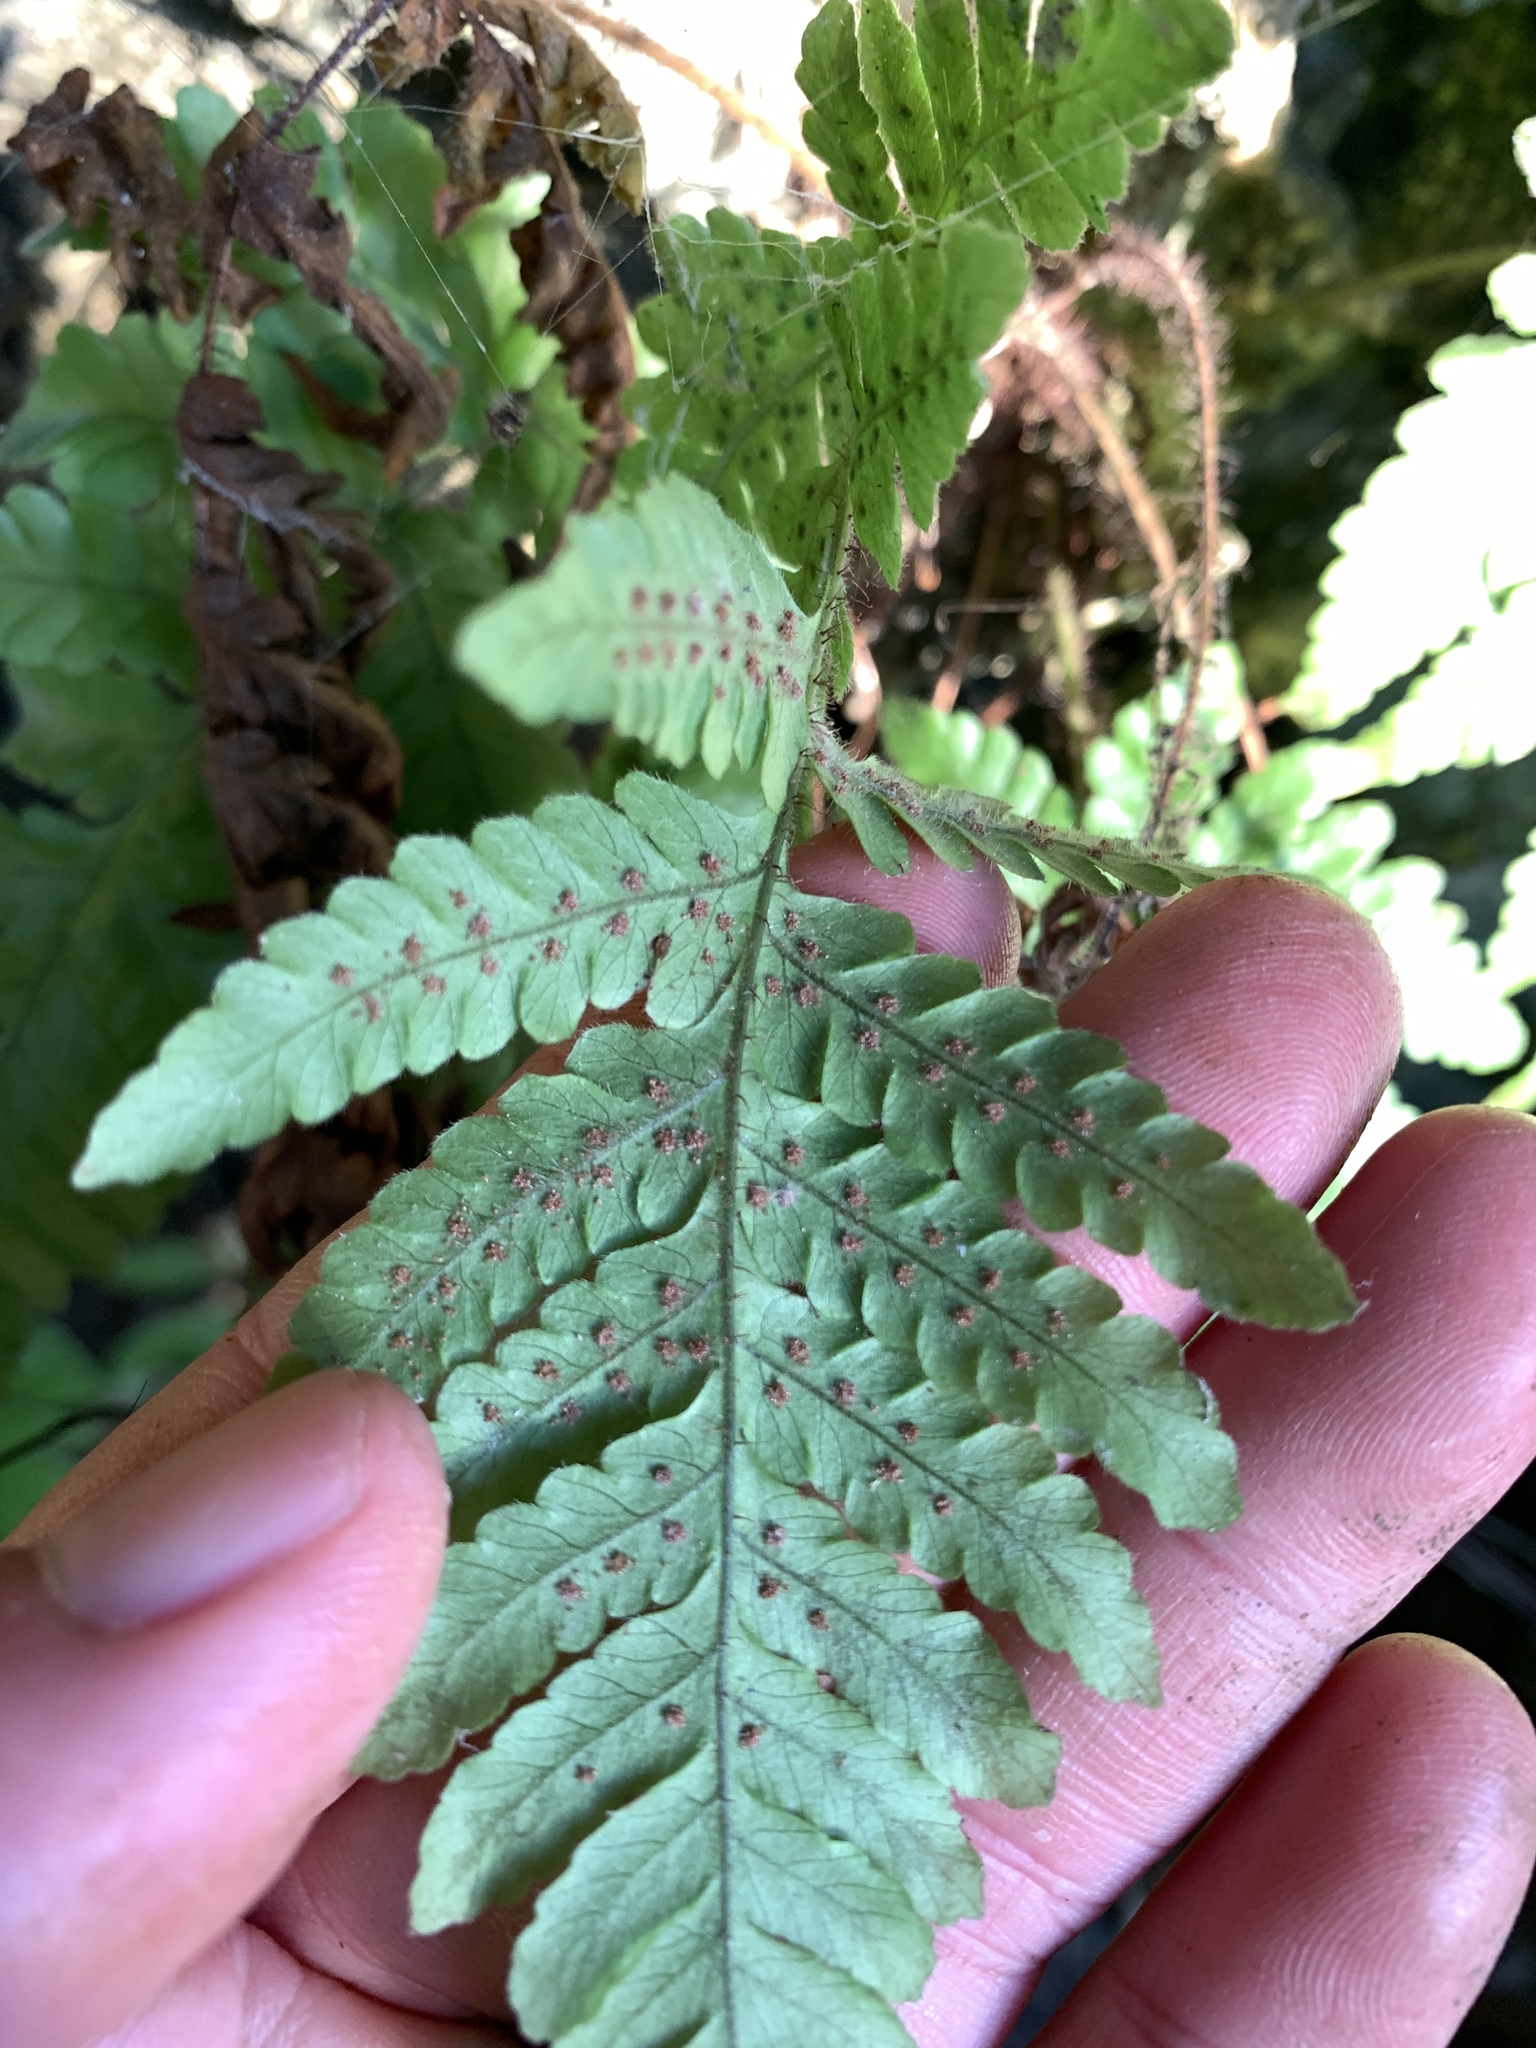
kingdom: Plantae
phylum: Tracheophyta
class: Polypodiopsida
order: Polypodiales
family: Dryopteridaceae
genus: Ctenitis
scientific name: Ctenitis eatonii
